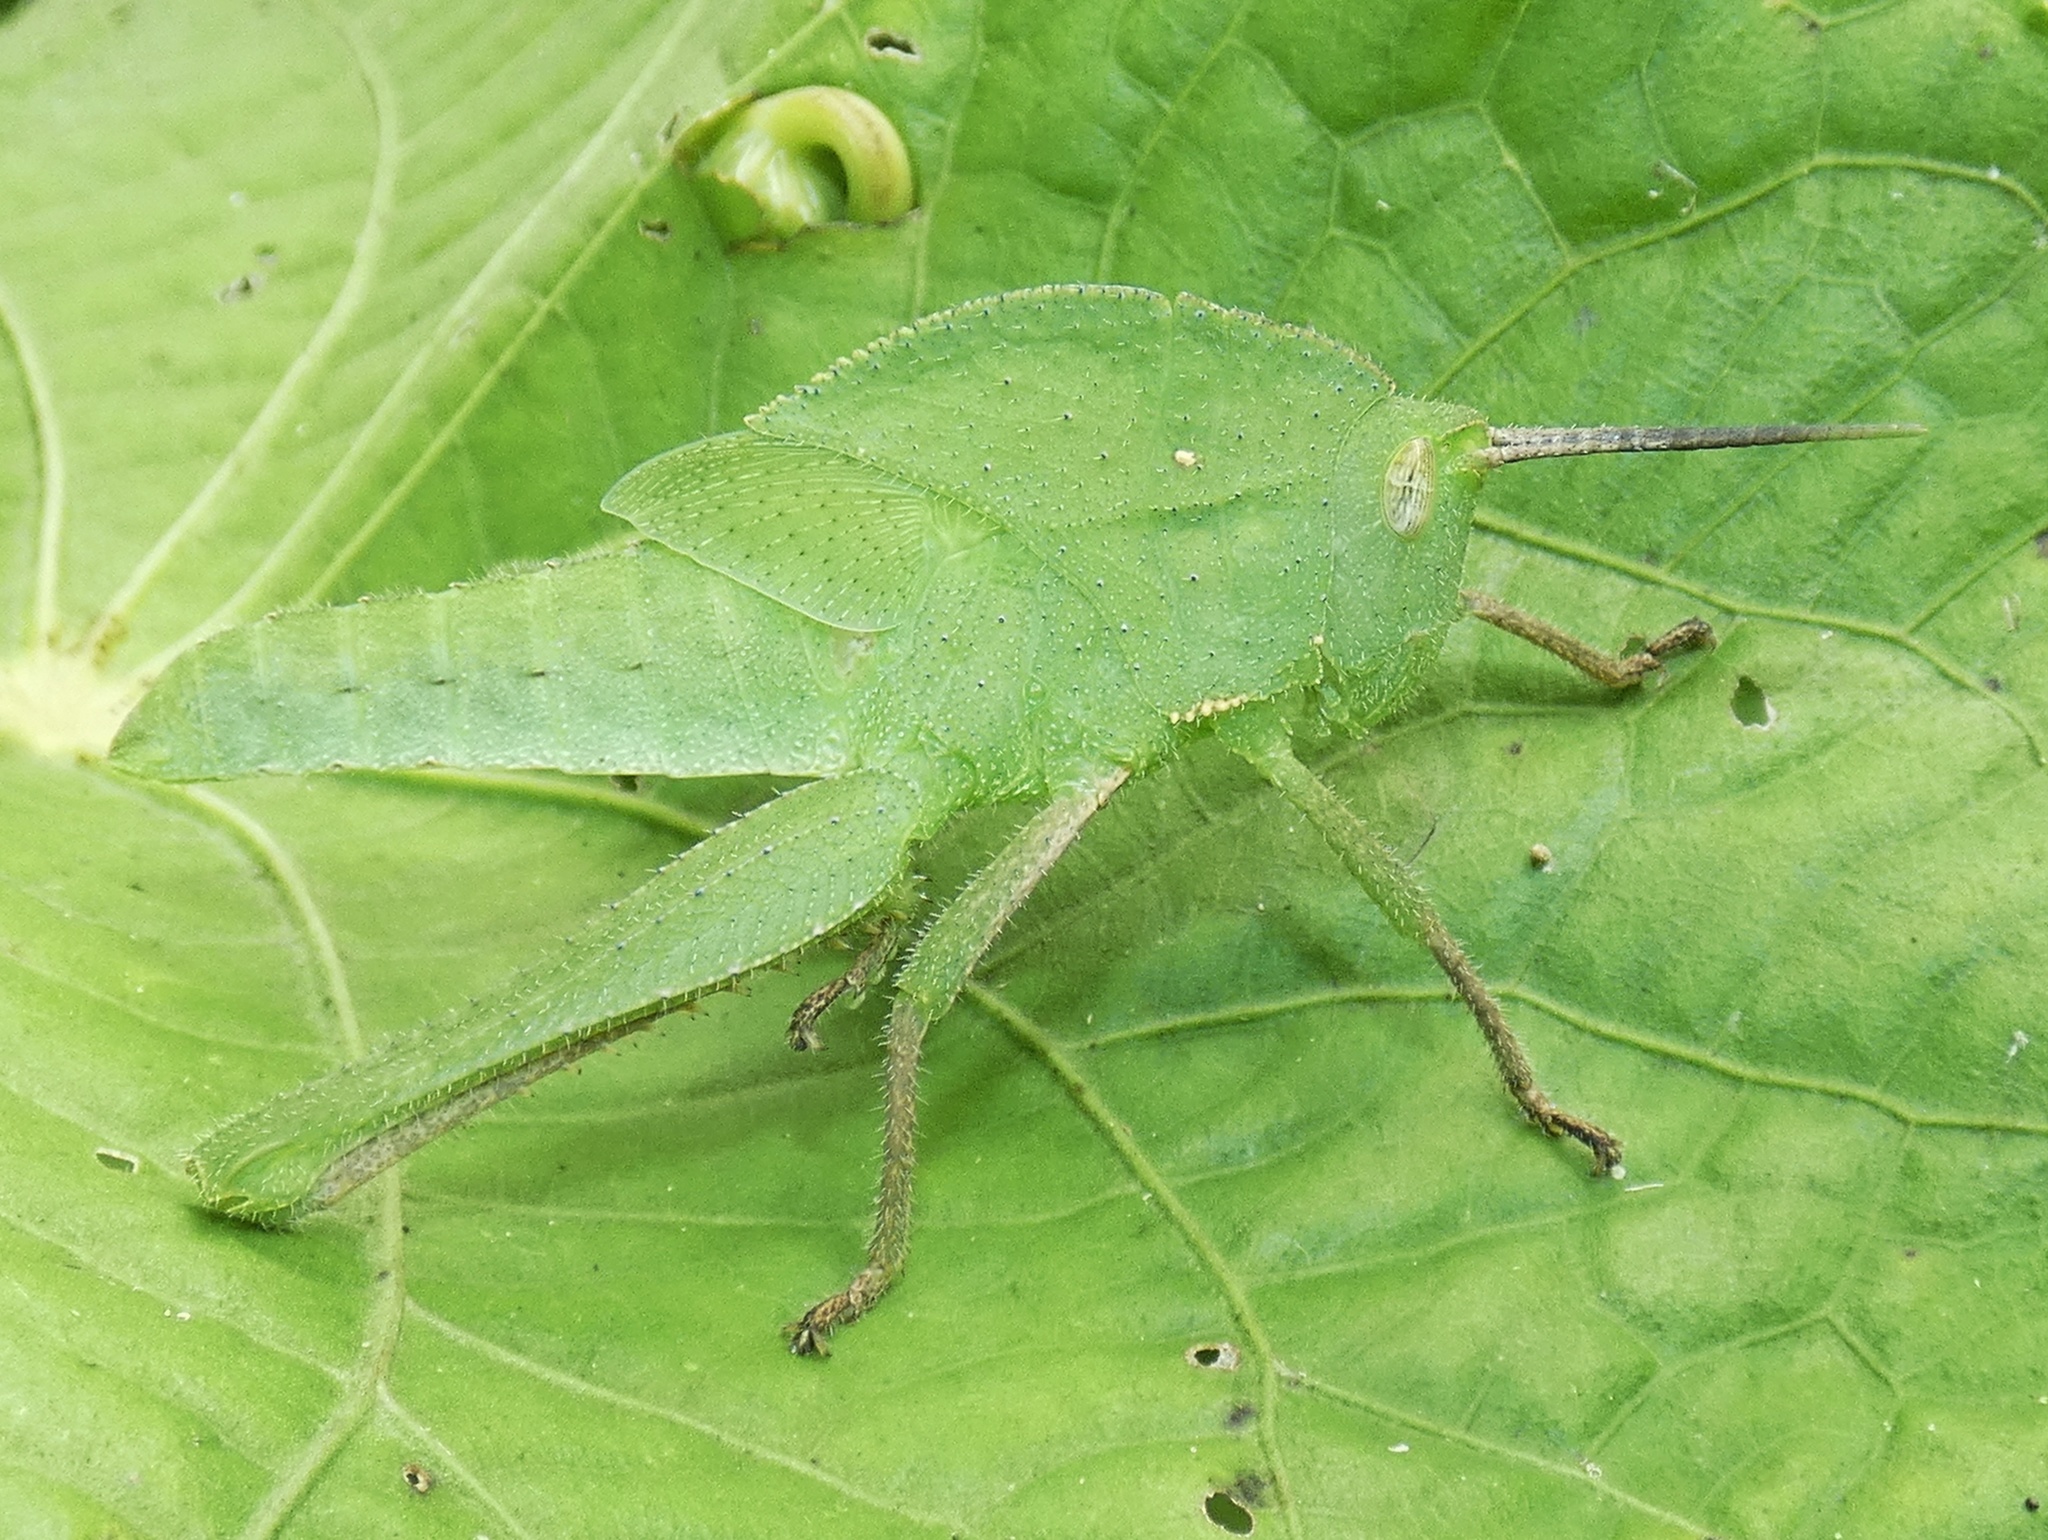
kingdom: Animalia
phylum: Arthropoda
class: Insecta
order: Orthoptera
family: Romaleidae
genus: Xyleus
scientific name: Xyleus discoideus
